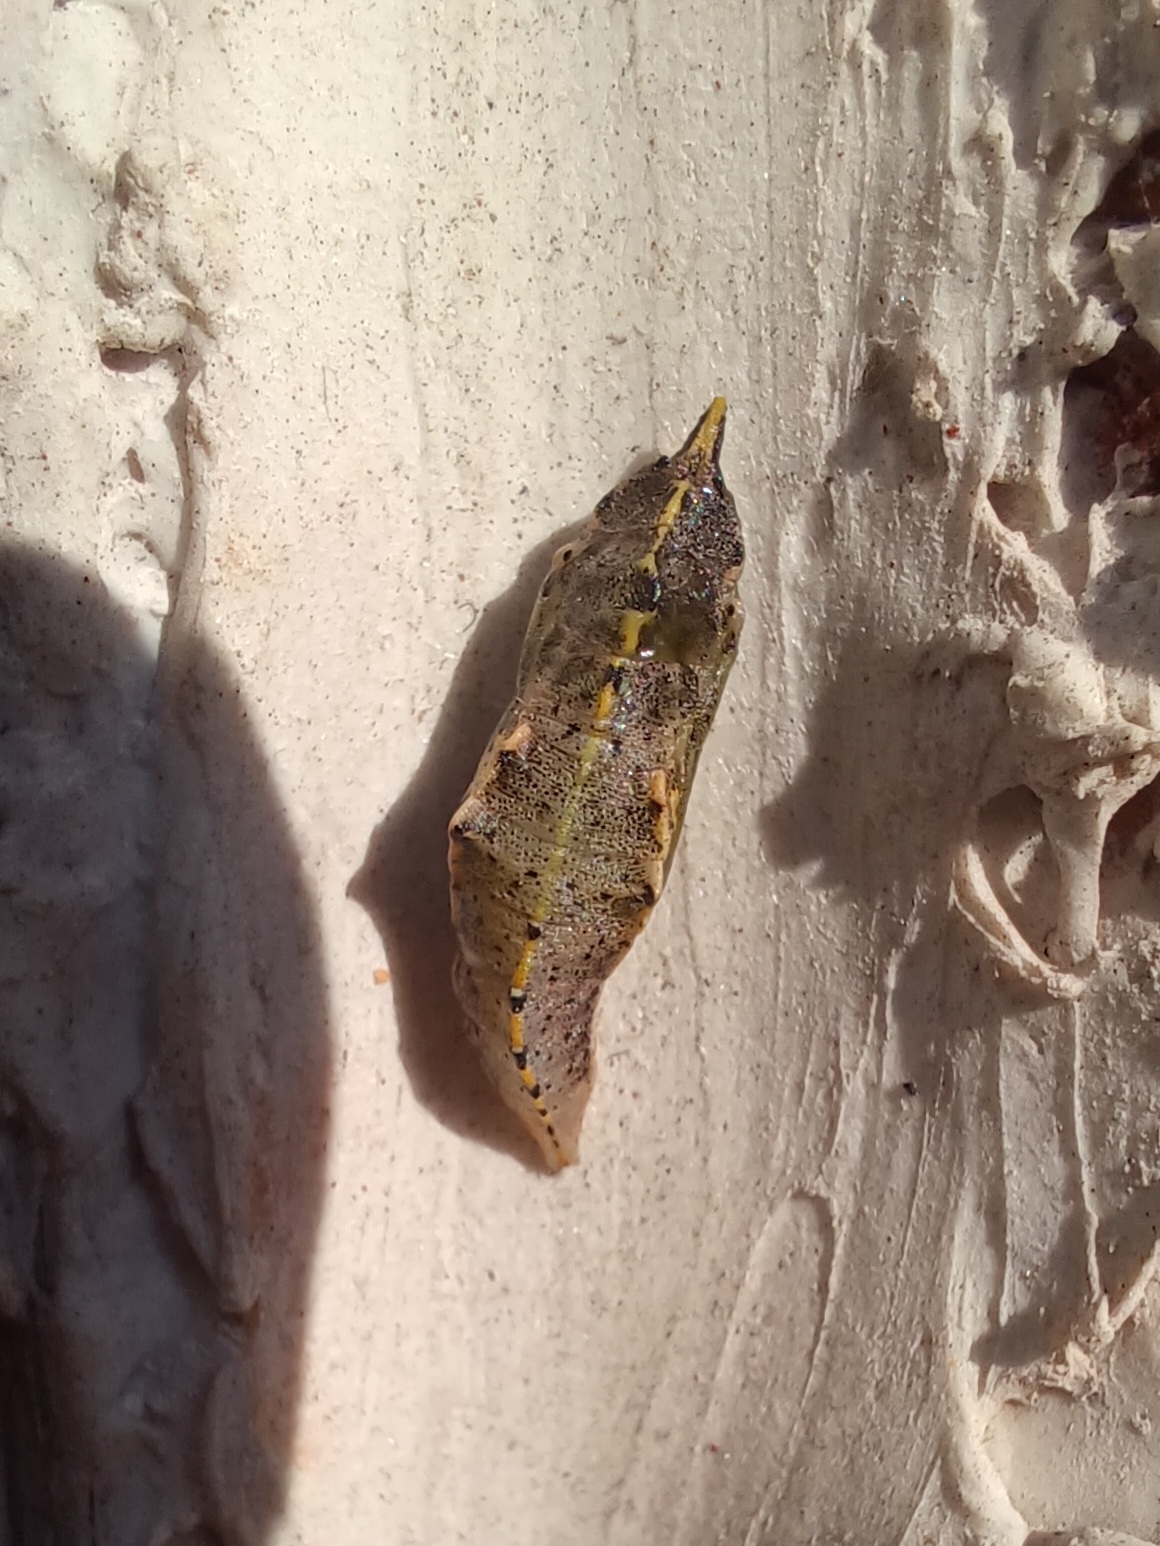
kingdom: Animalia
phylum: Arthropoda
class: Insecta
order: Lepidoptera
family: Pieridae
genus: Pieris
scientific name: Pieris rapae
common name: Small white
